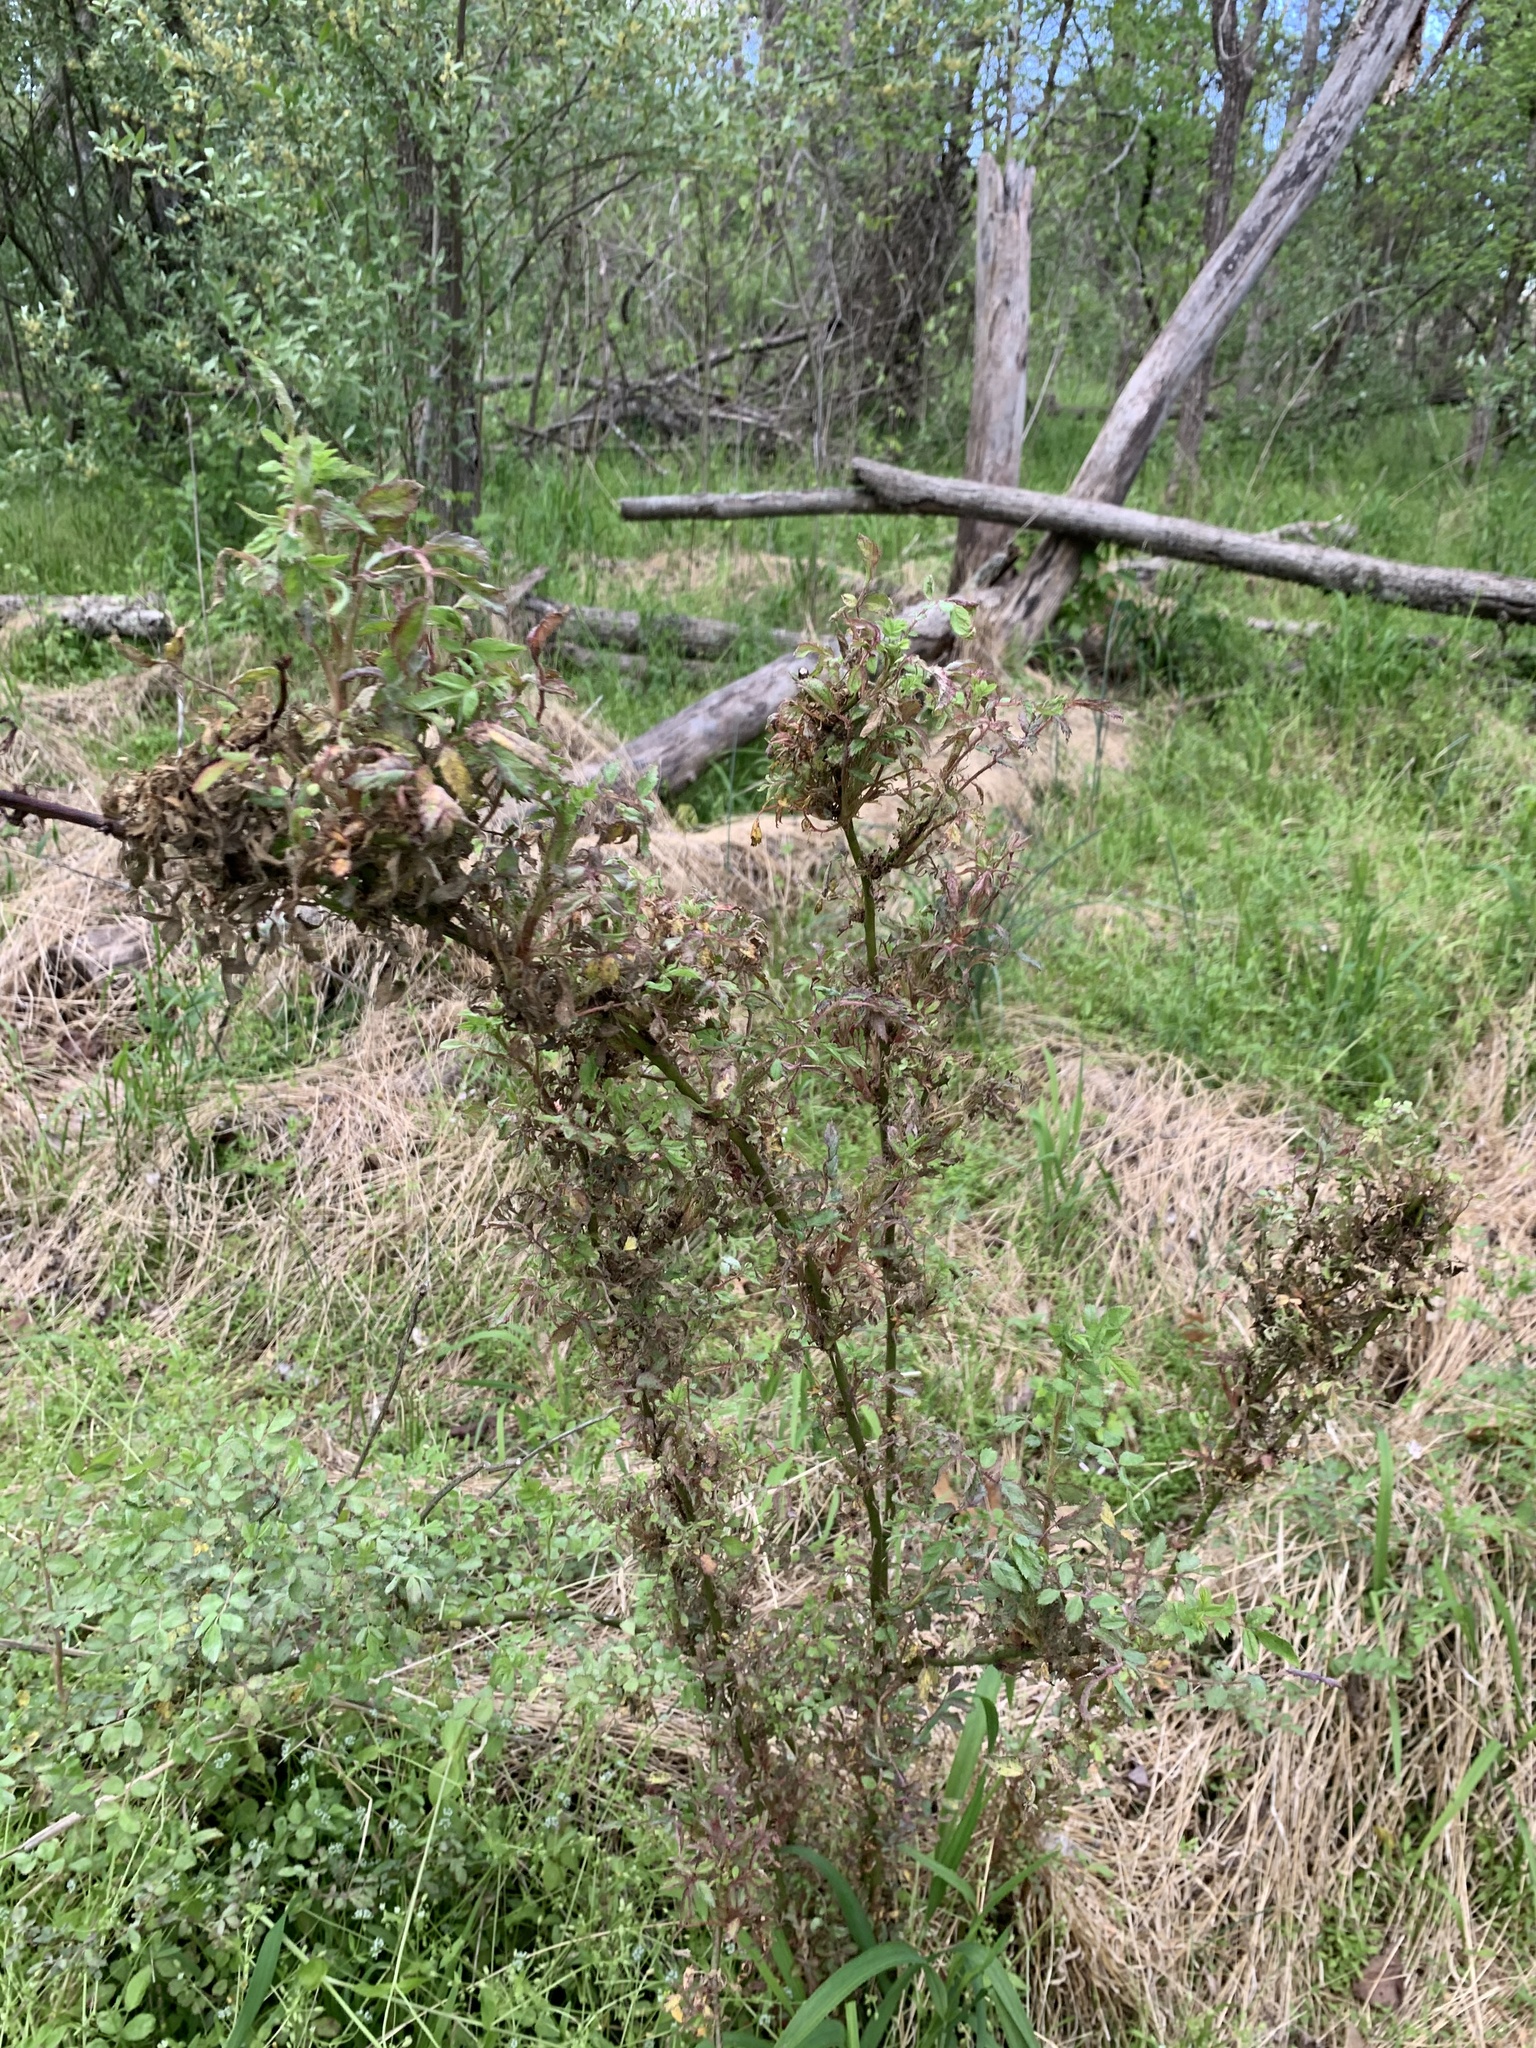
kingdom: Viruses
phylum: Negarnaviricota
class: Ellioviricetes
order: Bunyavirales
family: Fimoviridae
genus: Emaravirus
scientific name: Emaravirus rosae
